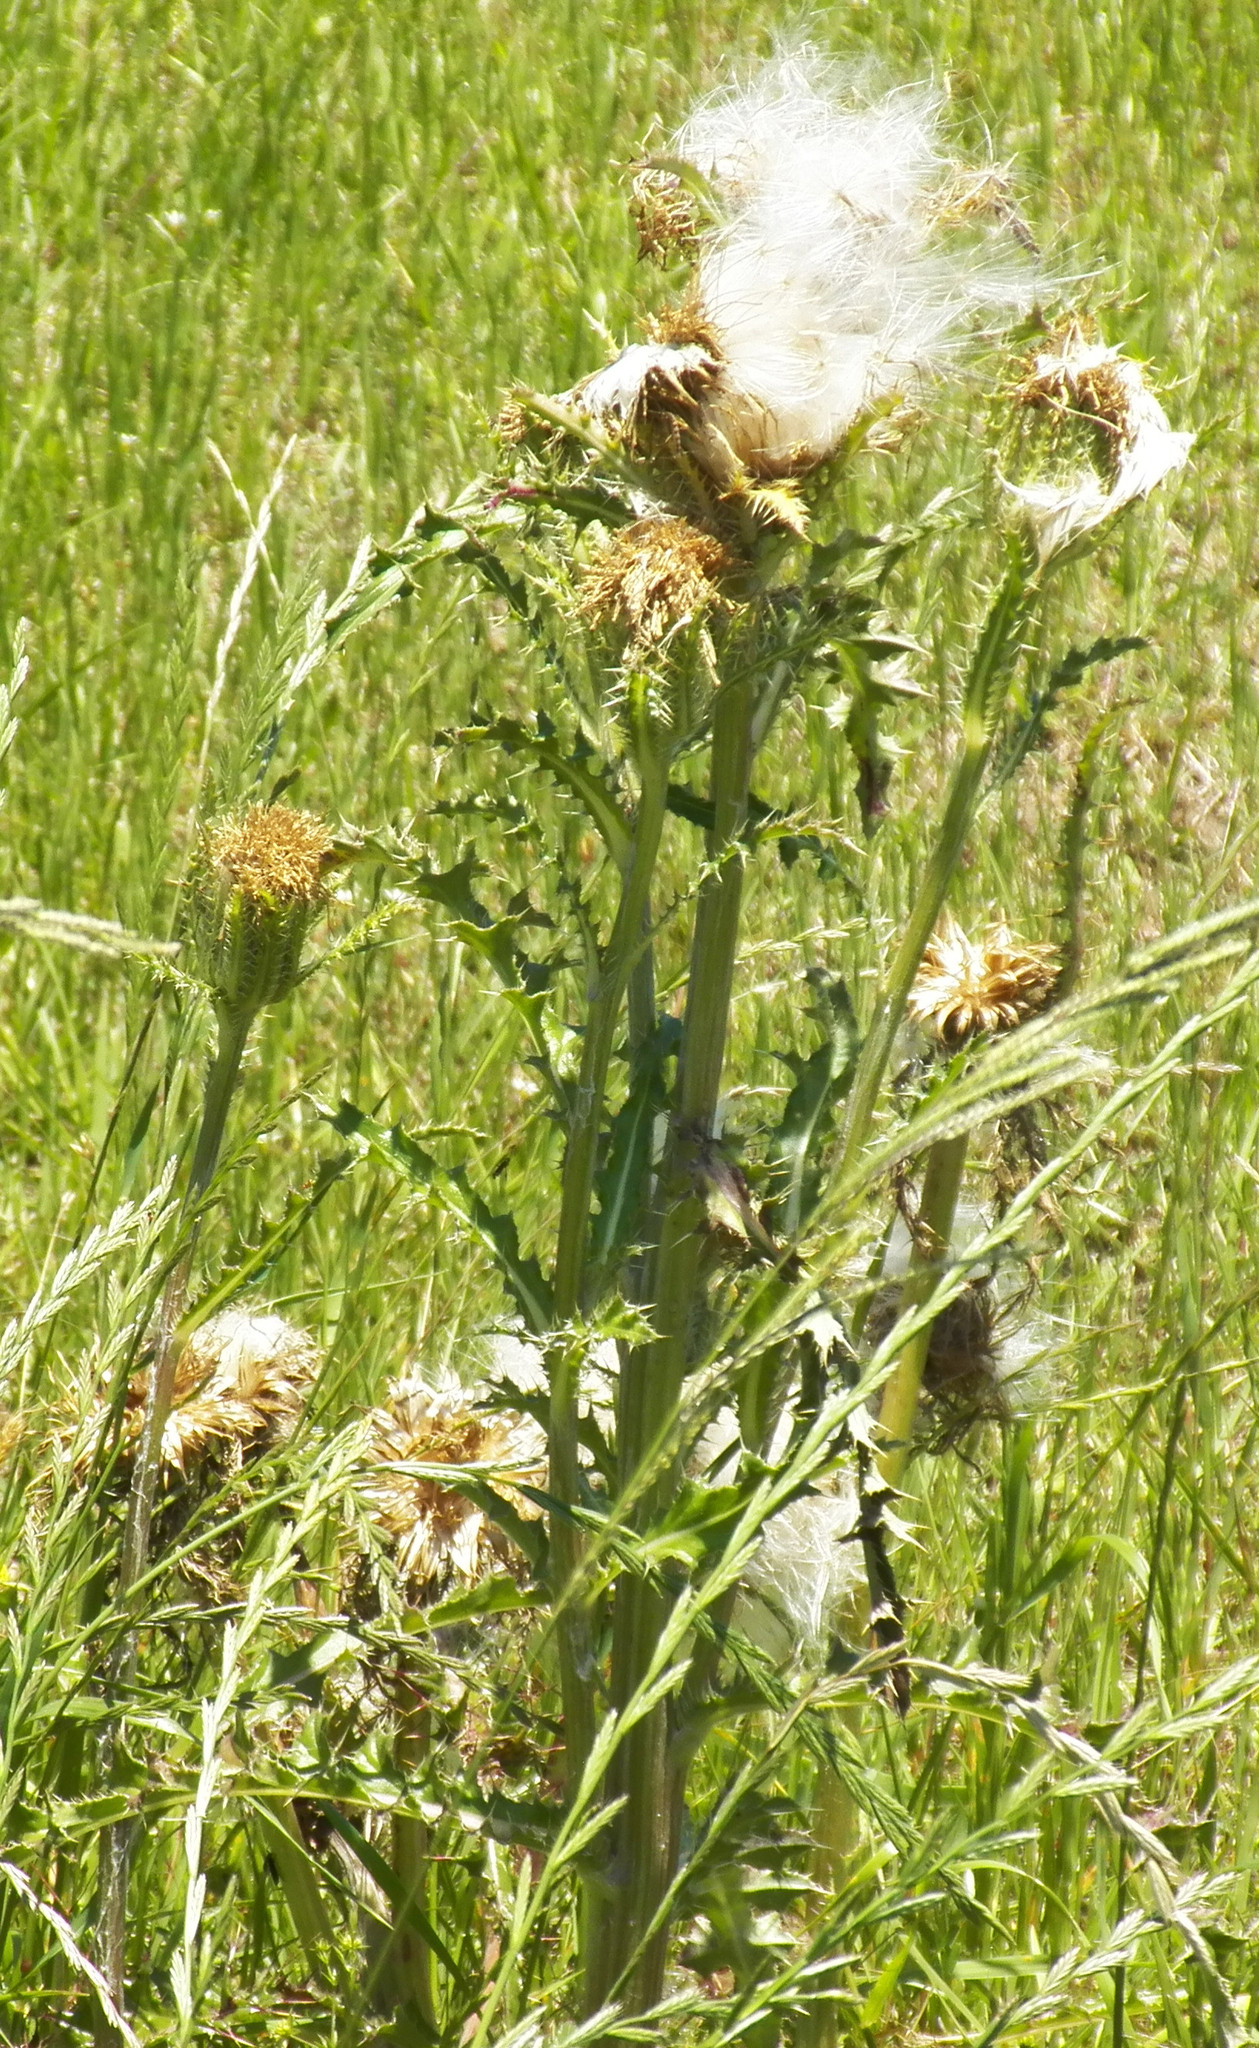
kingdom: Plantae
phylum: Tracheophyta
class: Magnoliopsida
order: Asterales
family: Asteraceae
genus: Cirsium
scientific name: Cirsium horridulum
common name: Bristly thistle
